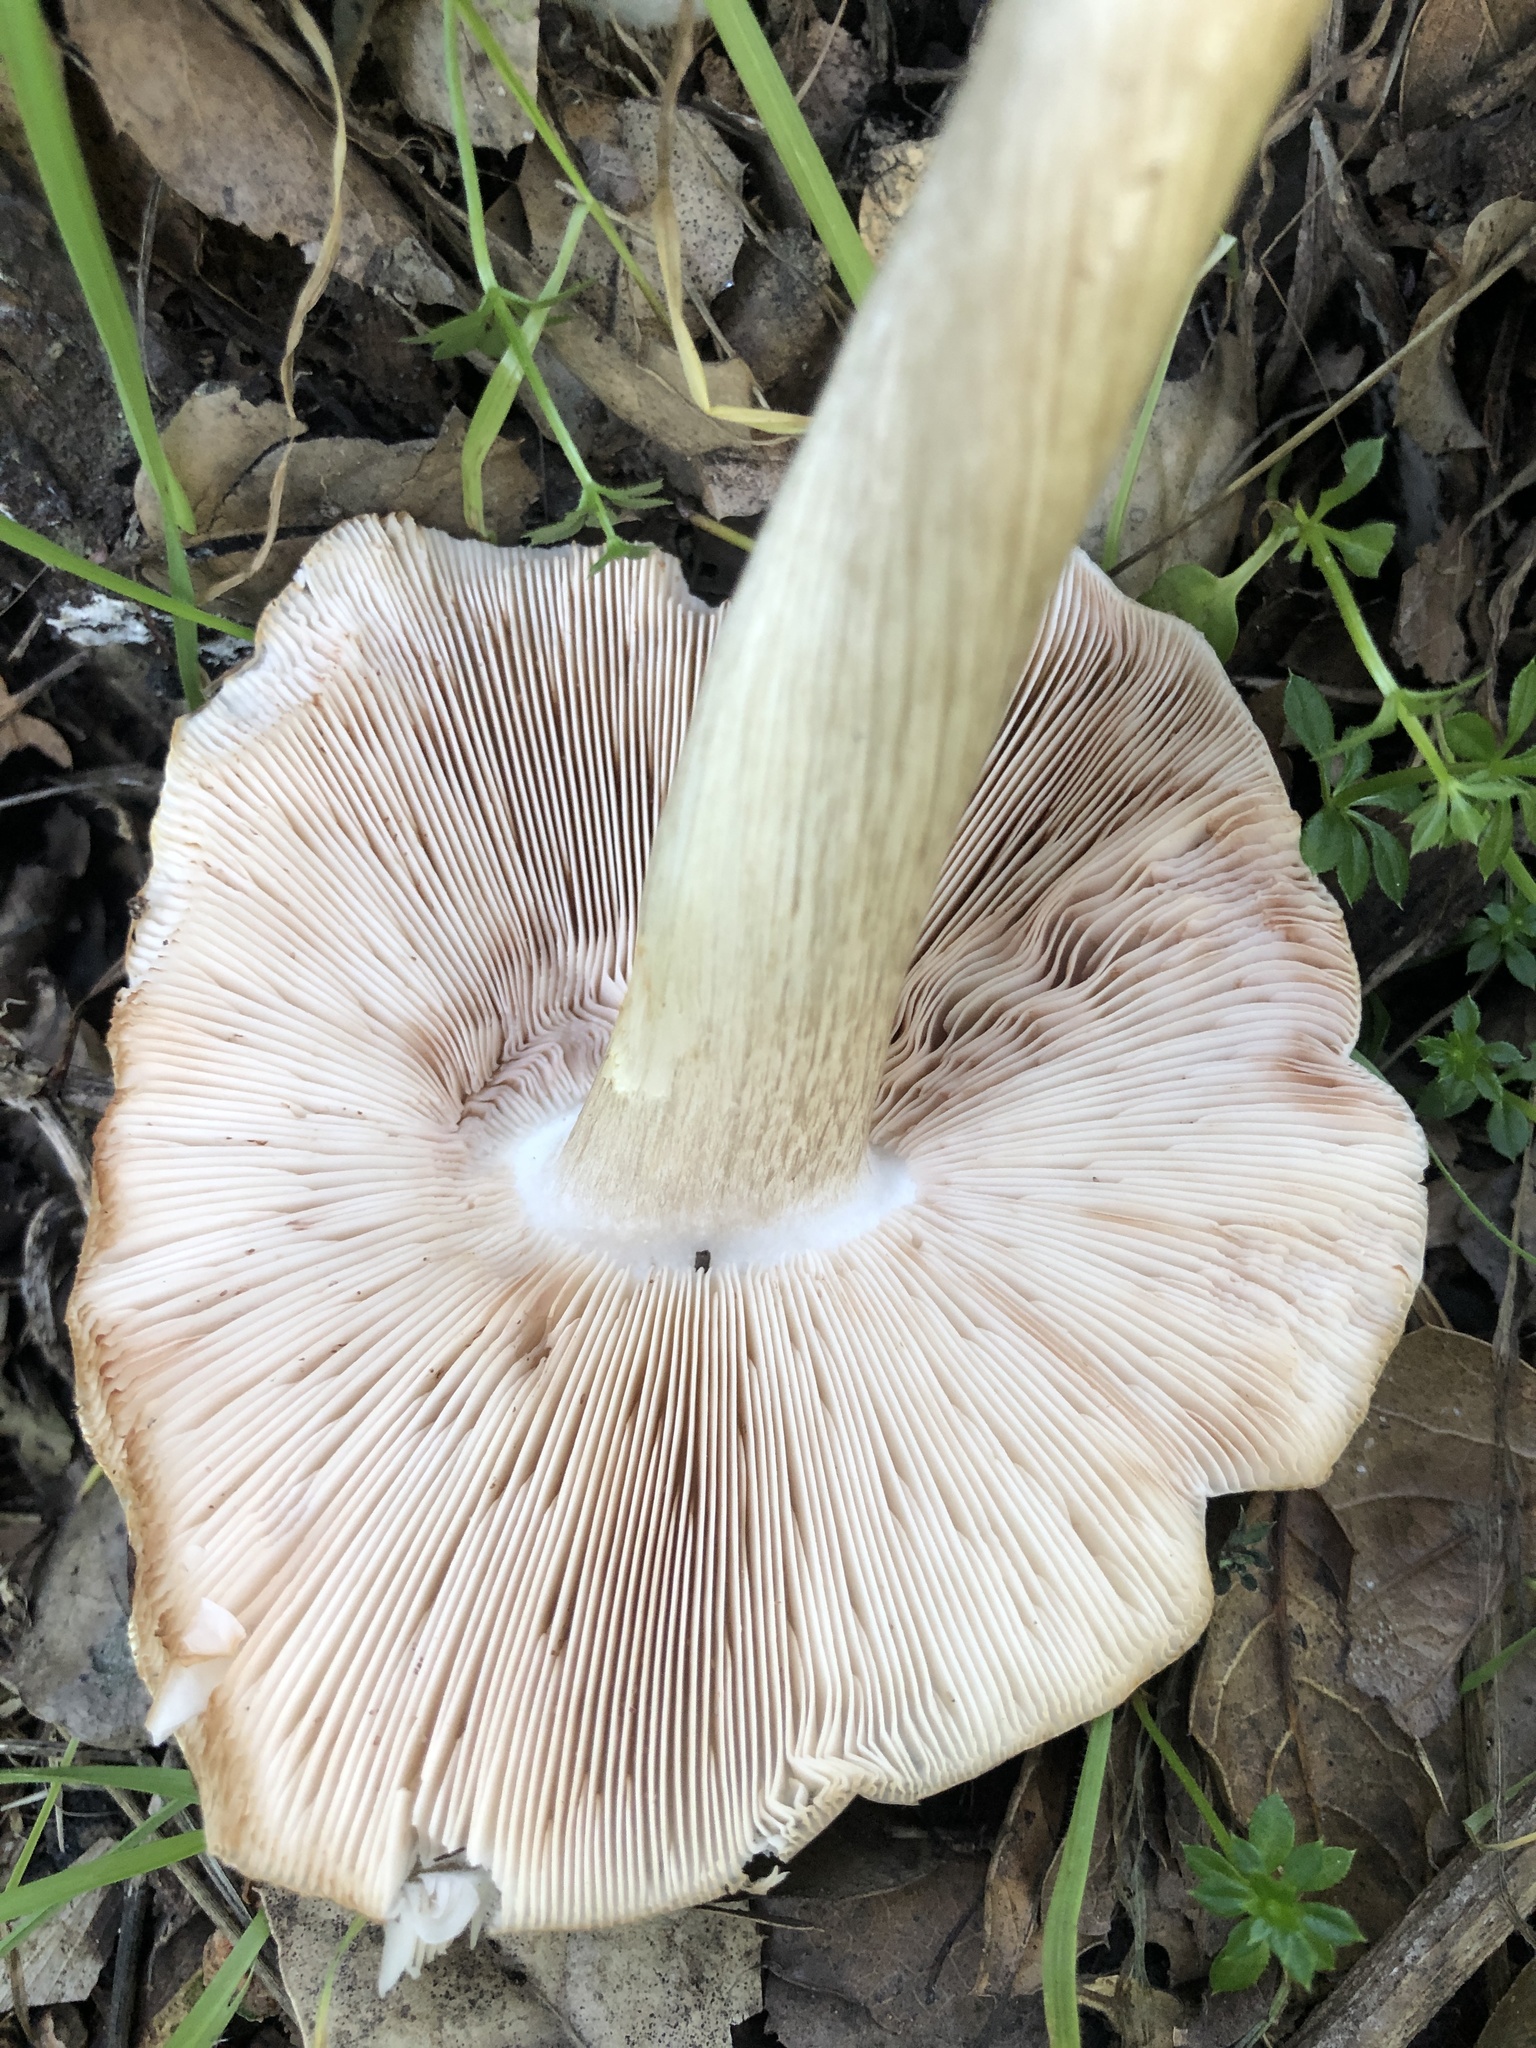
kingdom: Fungi
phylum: Basidiomycota
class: Agaricomycetes
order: Agaricales
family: Pluteaceae
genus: Pluteus
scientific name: Pluteus cervinus
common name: Deer shield
